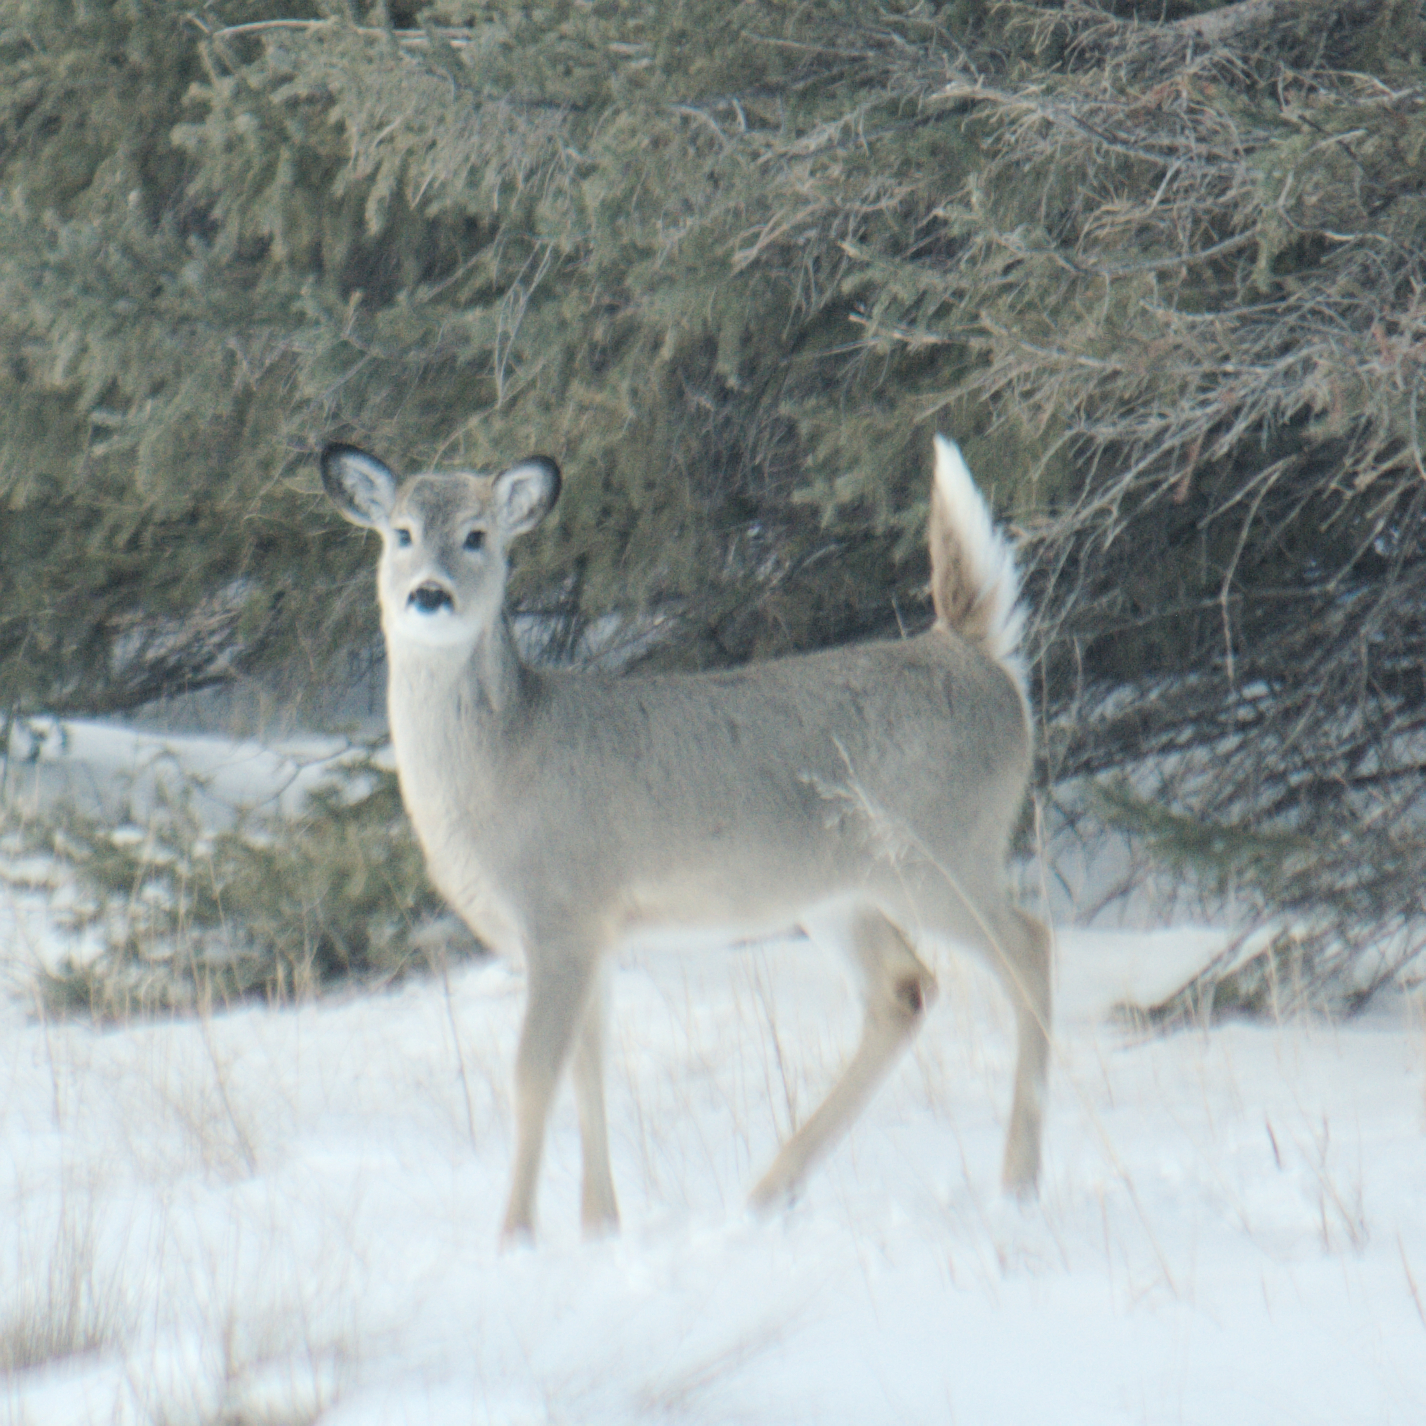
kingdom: Animalia
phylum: Chordata
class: Mammalia
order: Artiodactyla
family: Cervidae
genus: Odocoileus
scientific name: Odocoileus virginianus
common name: White-tailed deer
